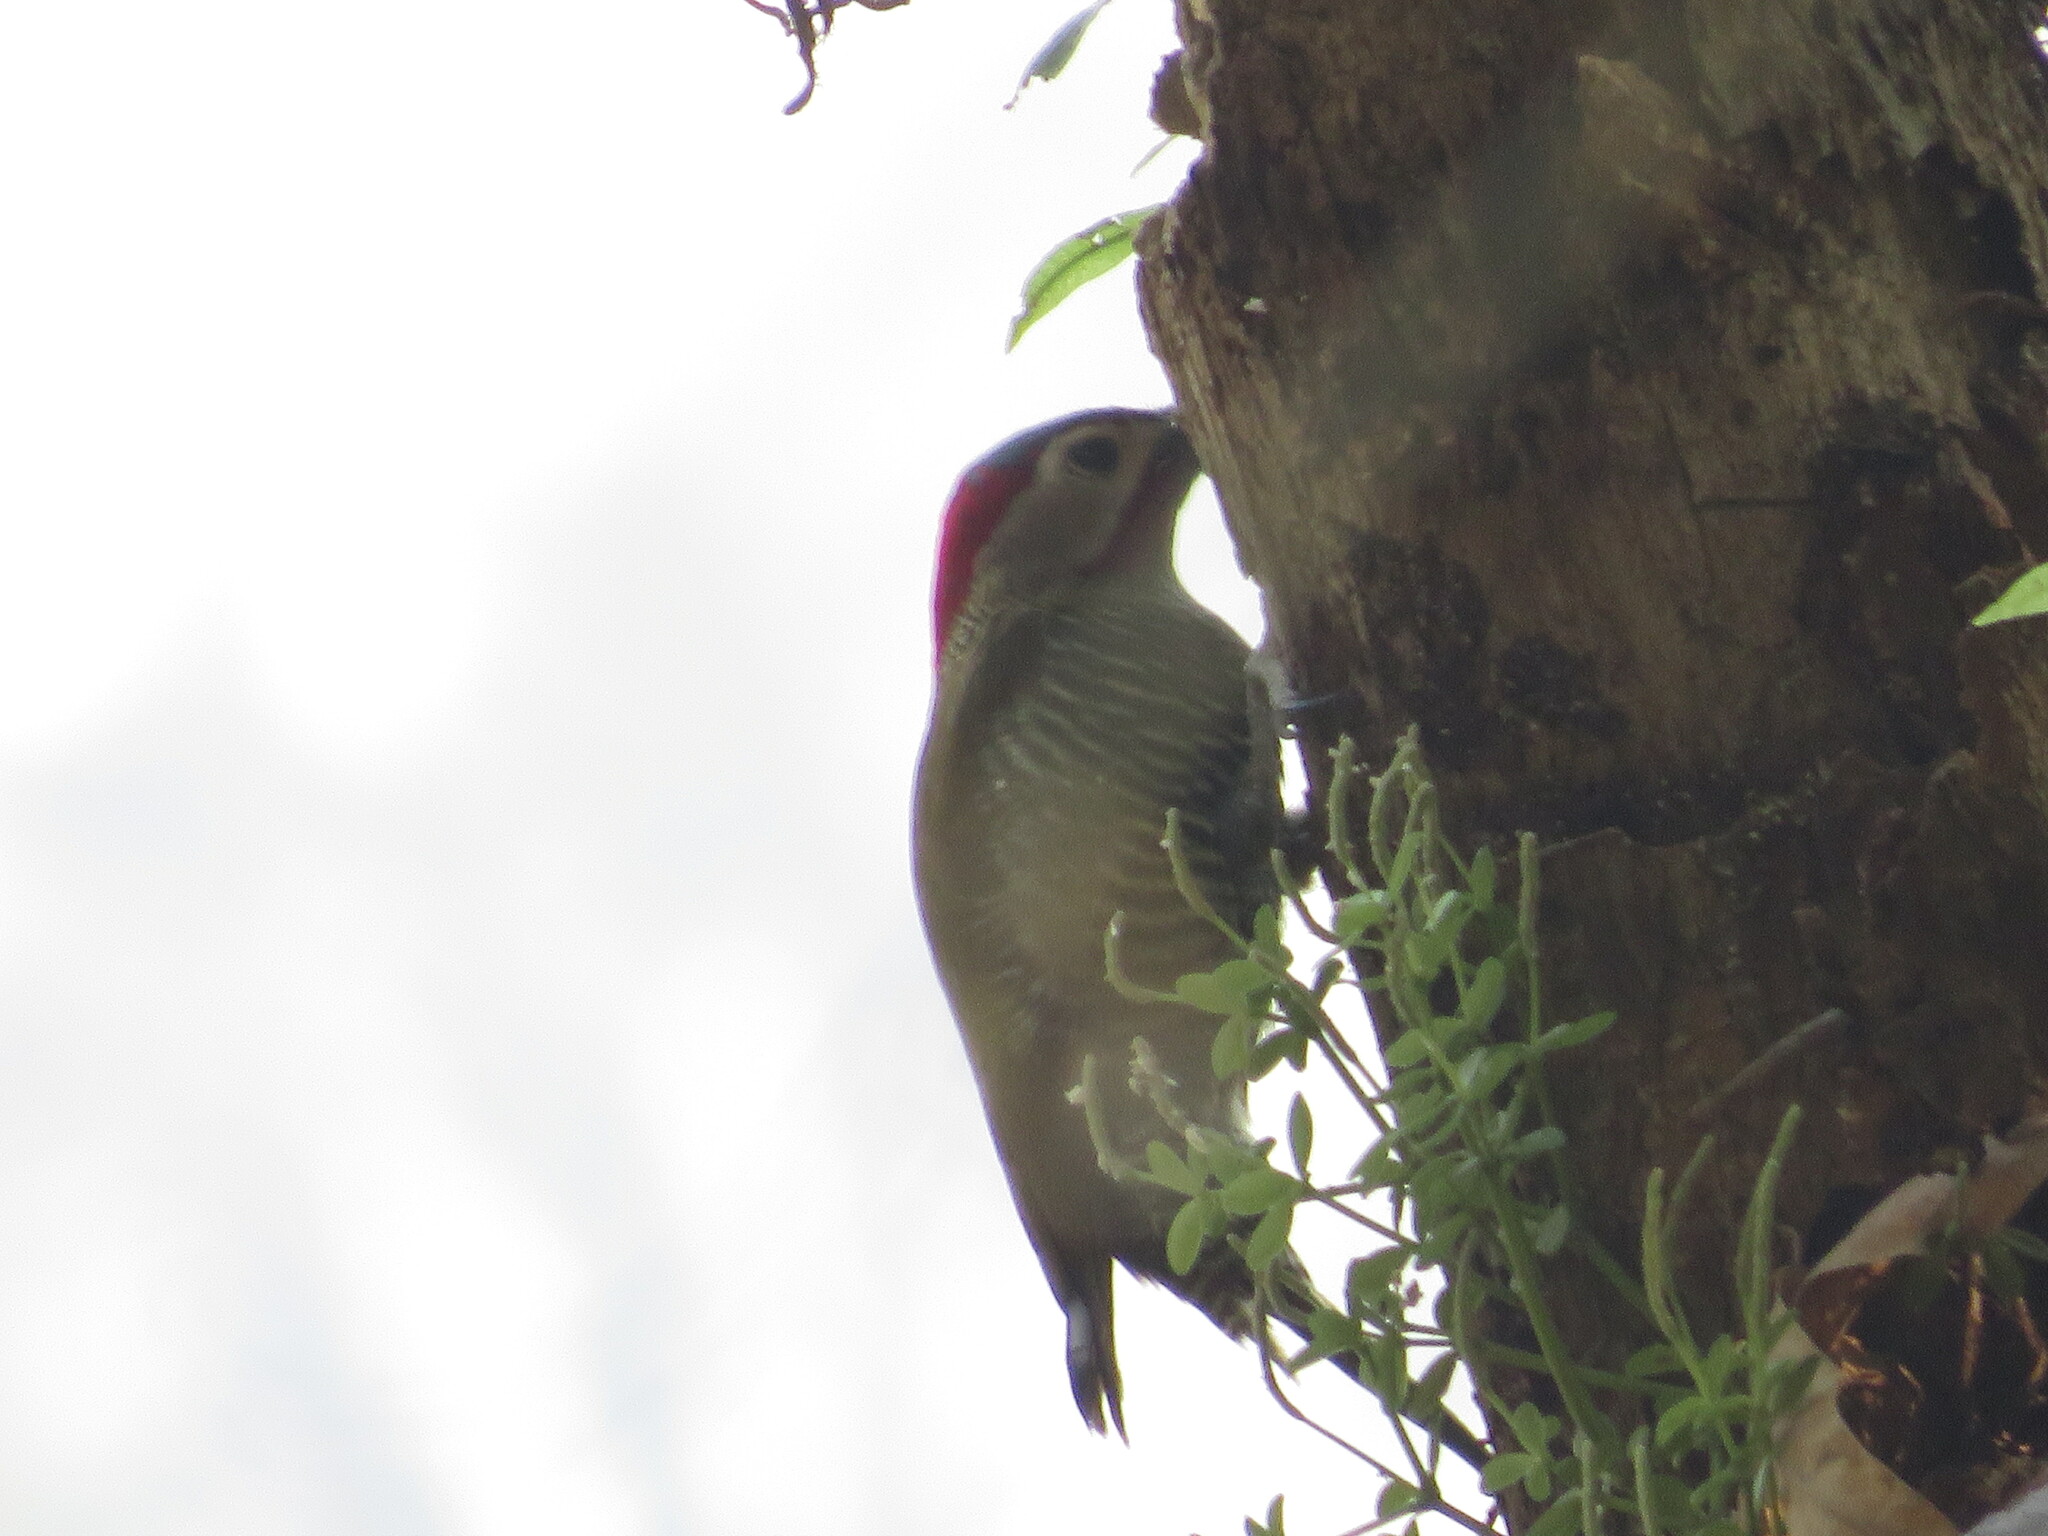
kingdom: Animalia
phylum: Chordata
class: Aves
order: Piciformes
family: Picidae
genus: Colaptes
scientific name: Colaptes rubiginosus
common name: Golden-olive woodpecker
